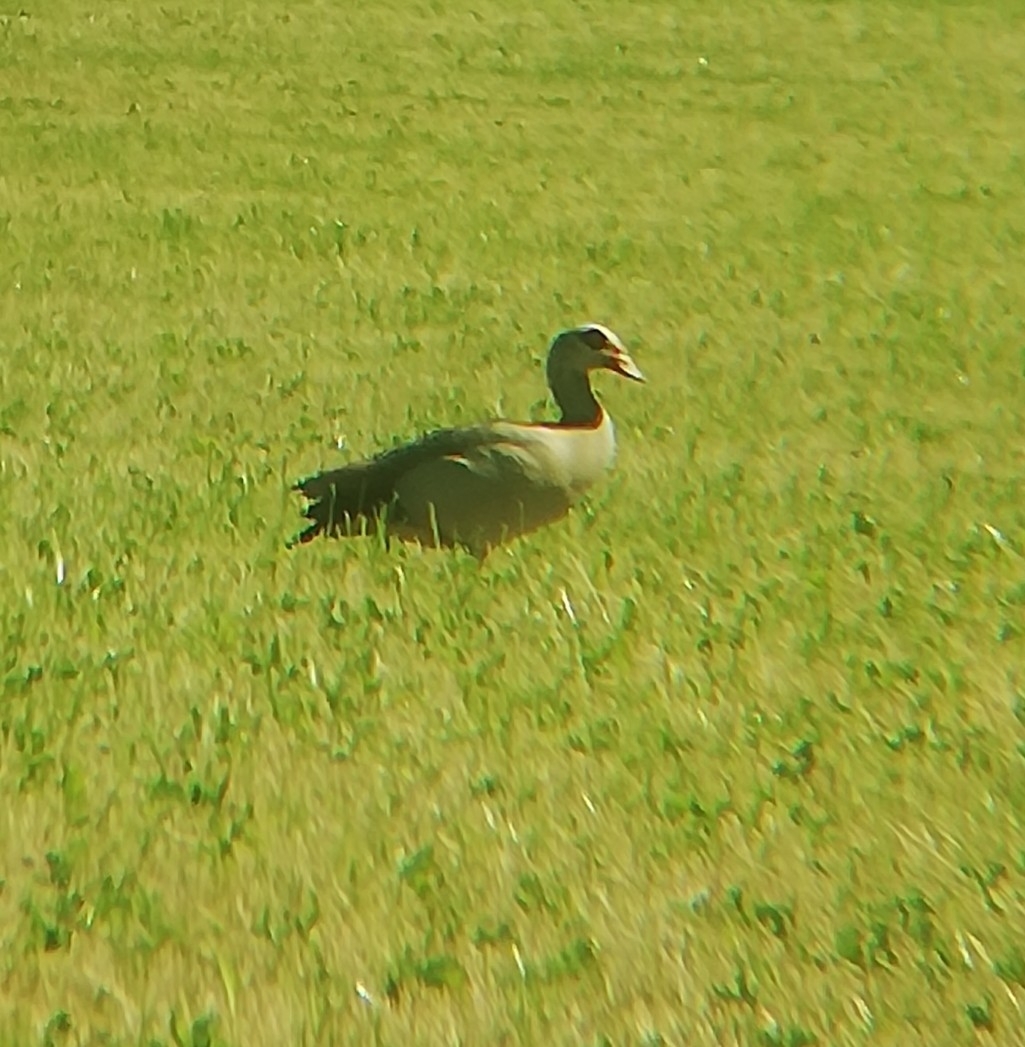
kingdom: Animalia
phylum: Chordata
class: Aves
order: Anseriformes
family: Anatidae
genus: Alopochen
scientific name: Alopochen aegyptiaca
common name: Egyptian goose
